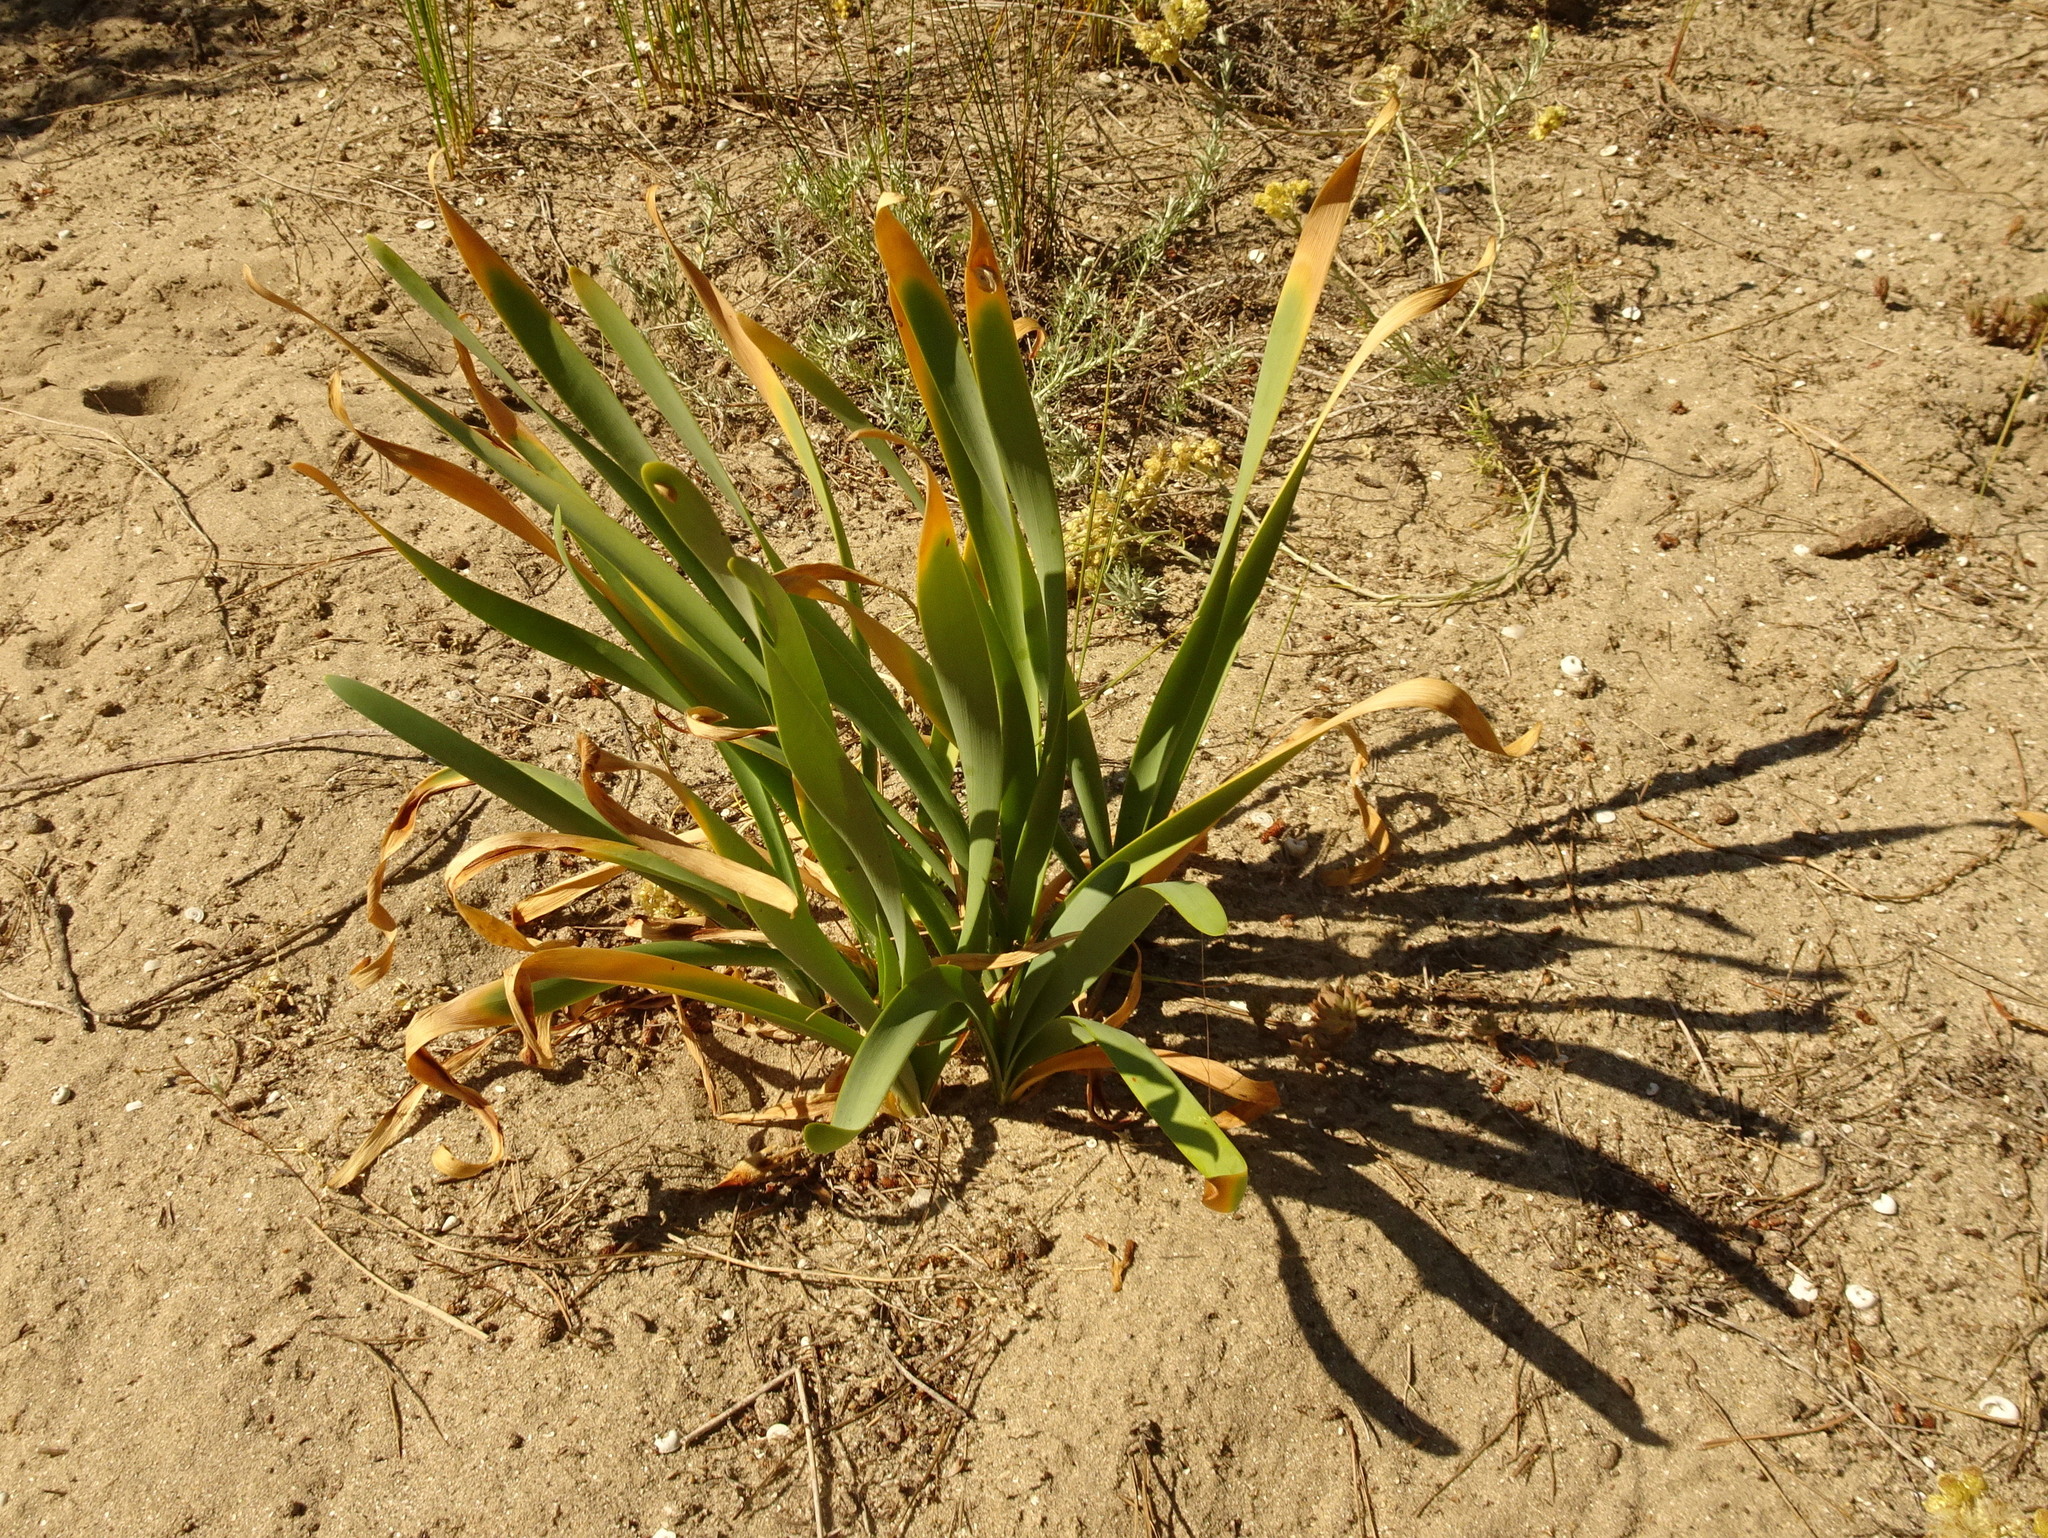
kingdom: Plantae
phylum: Tracheophyta
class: Liliopsida
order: Asparagales
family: Amaryllidaceae
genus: Pancratium
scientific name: Pancratium maritimum
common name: Sea-daffodil
